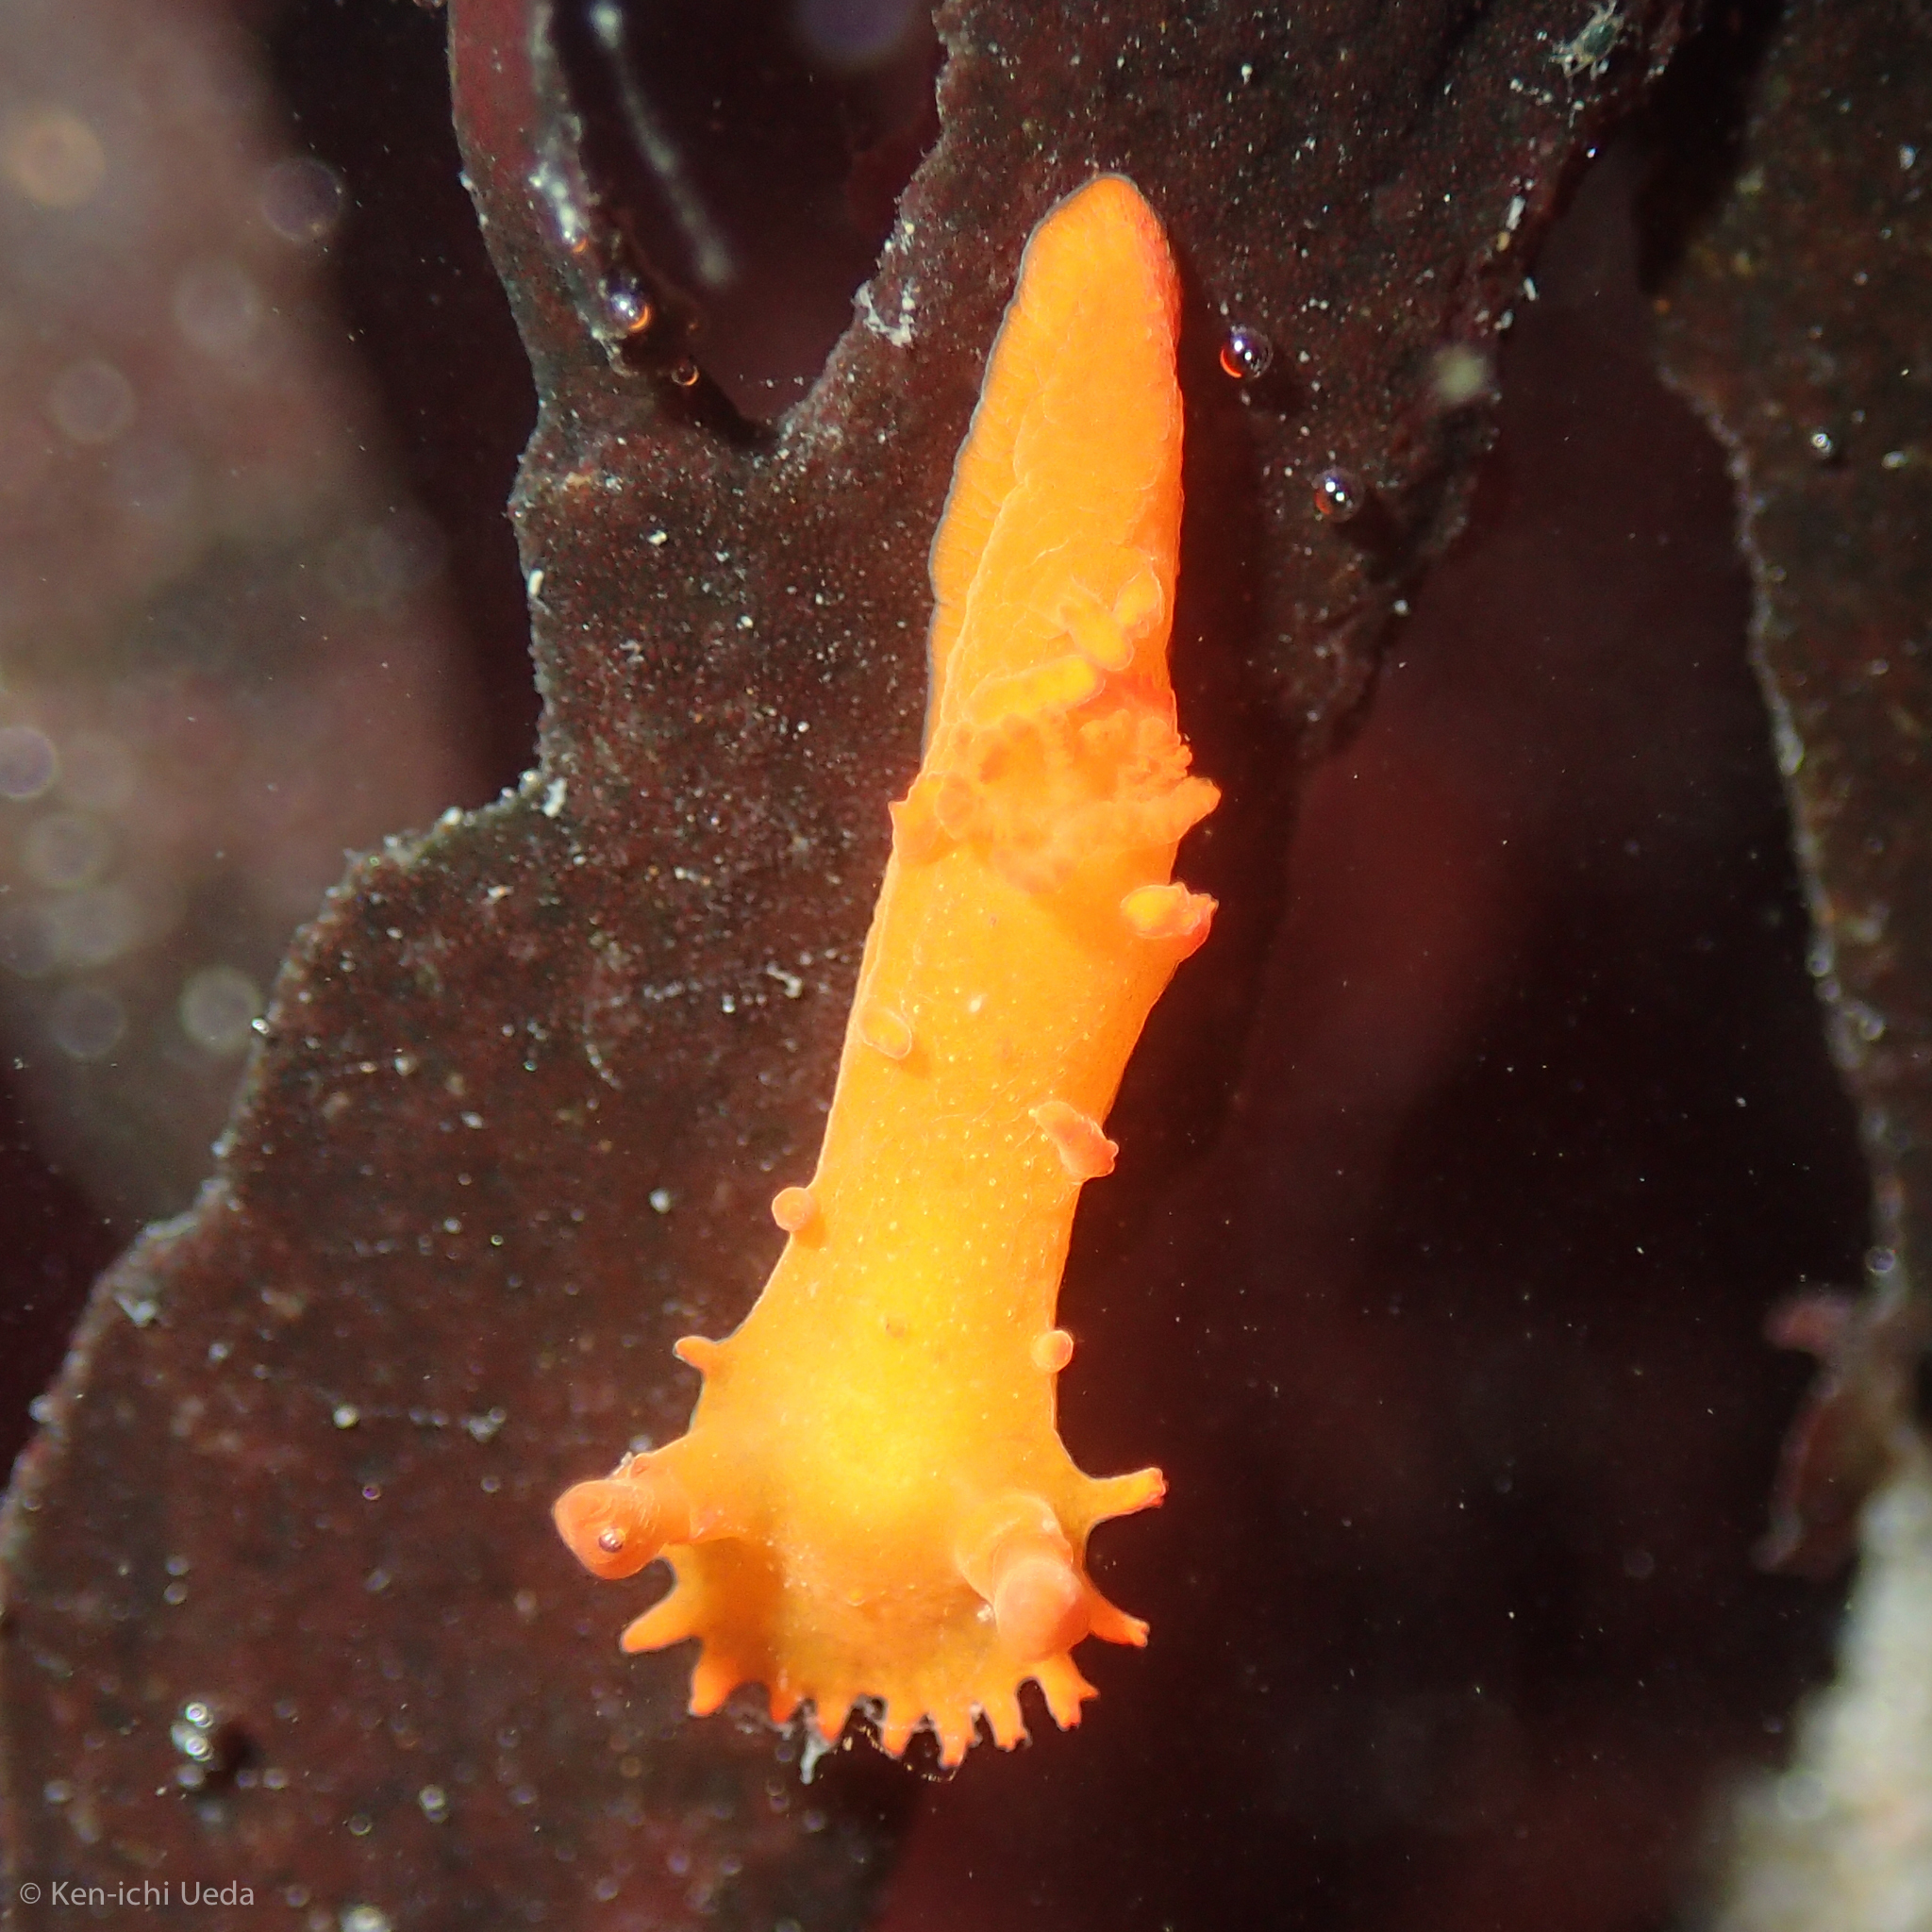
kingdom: Animalia
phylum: Mollusca
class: Gastropoda
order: Nudibranchia
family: Polyceridae
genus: Triopha
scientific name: Triopha maculata
